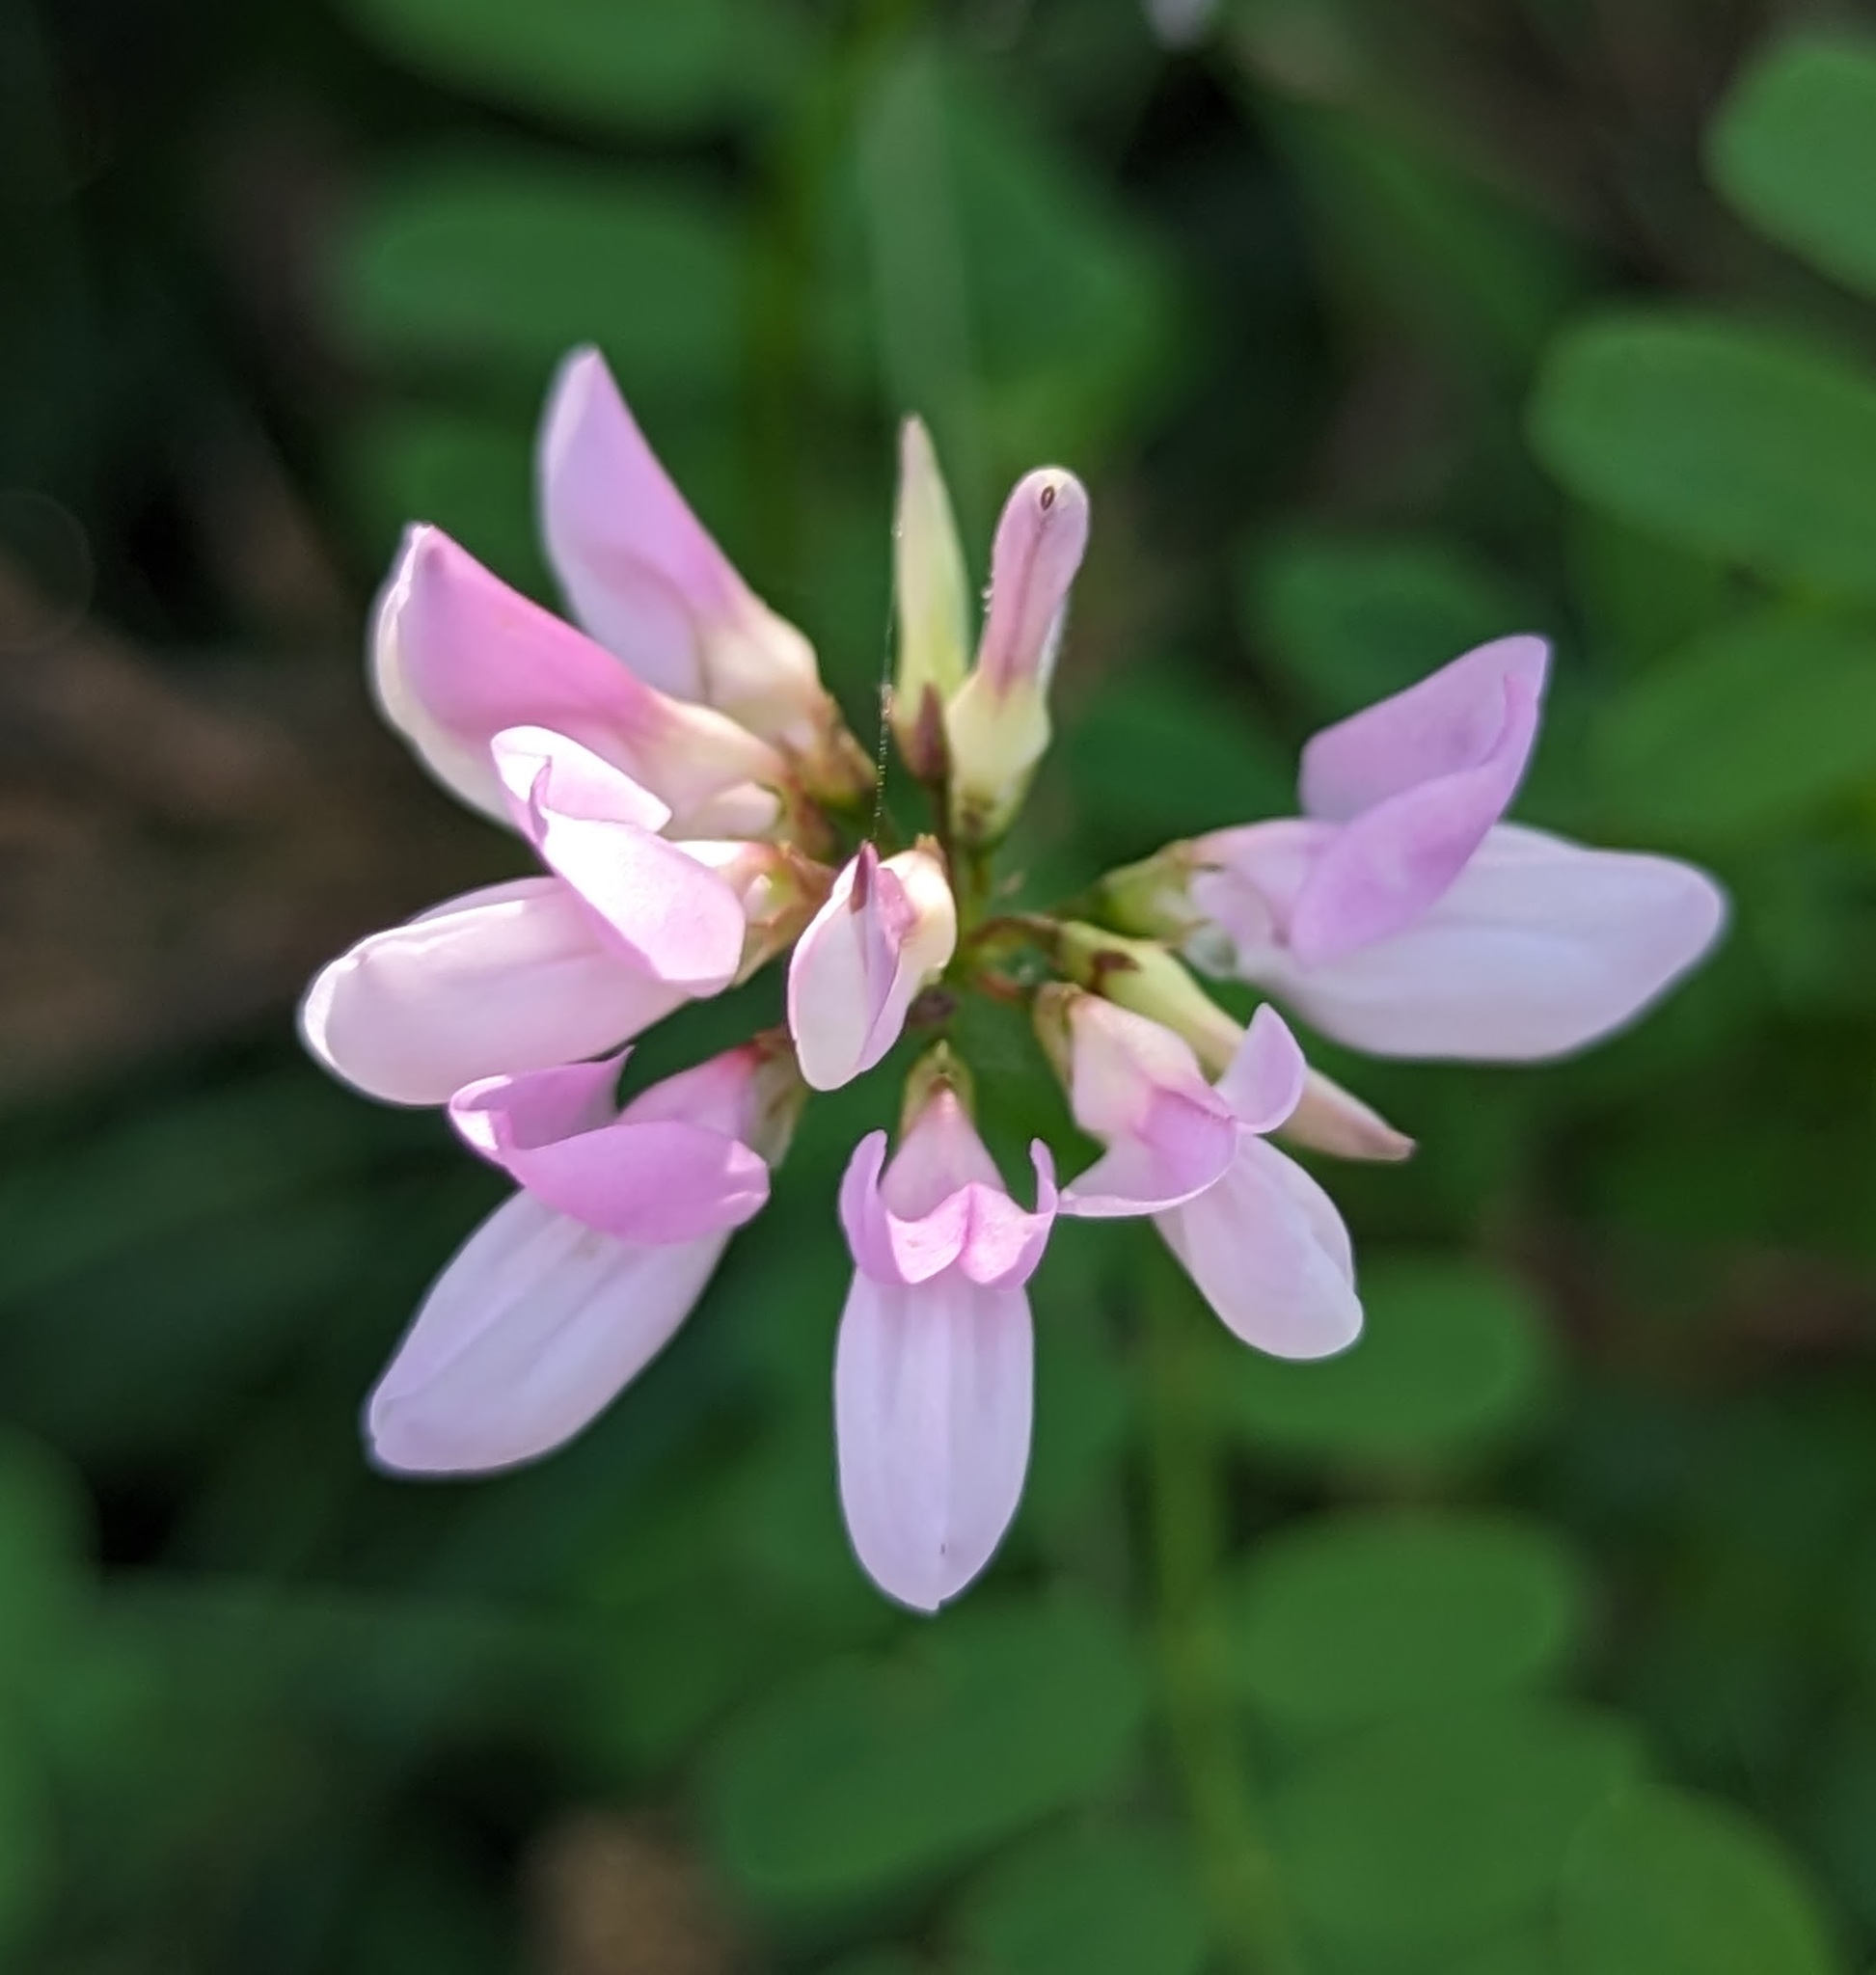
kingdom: Plantae
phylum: Tracheophyta
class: Magnoliopsida
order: Fabales
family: Fabaceae
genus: Coronilla
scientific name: Coronilla varia
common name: Crownvetch
